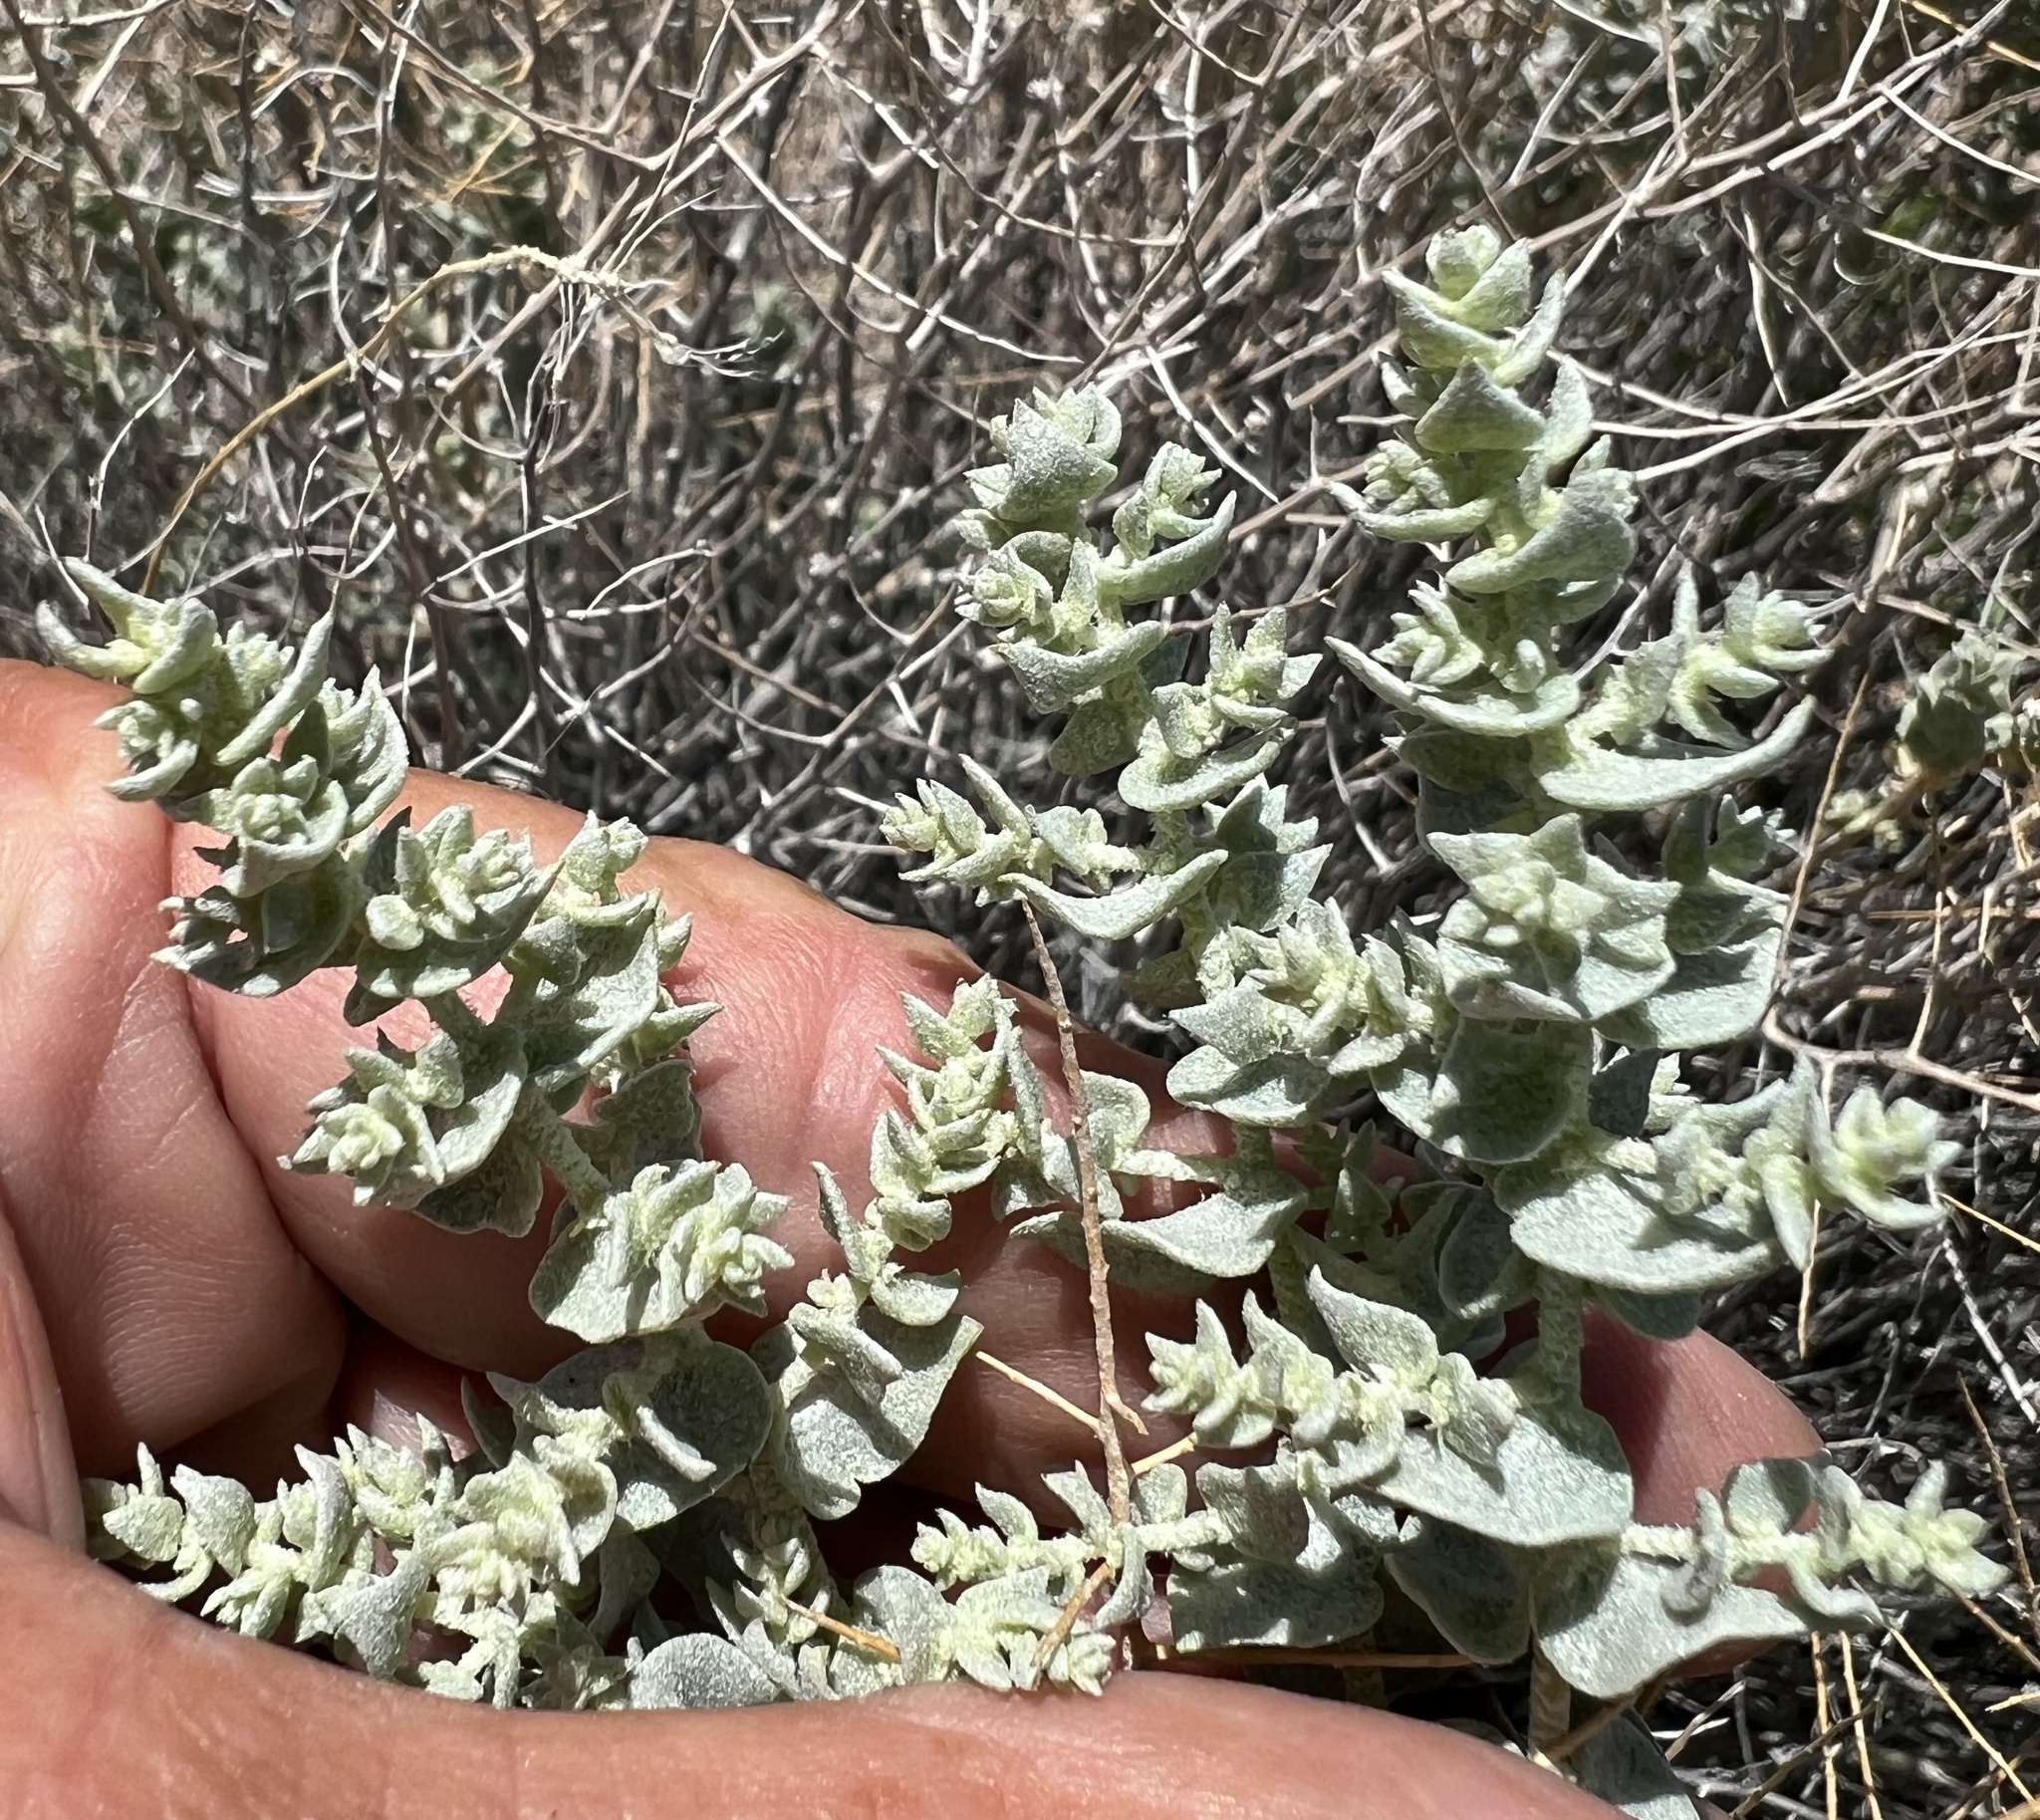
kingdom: Plantae
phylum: Tracheophyta
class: Magnoliopsida
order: Caryophyllales
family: Amaranthaceae
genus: Atriplex
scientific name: Atriplex parryi
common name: Parry's saltbush
